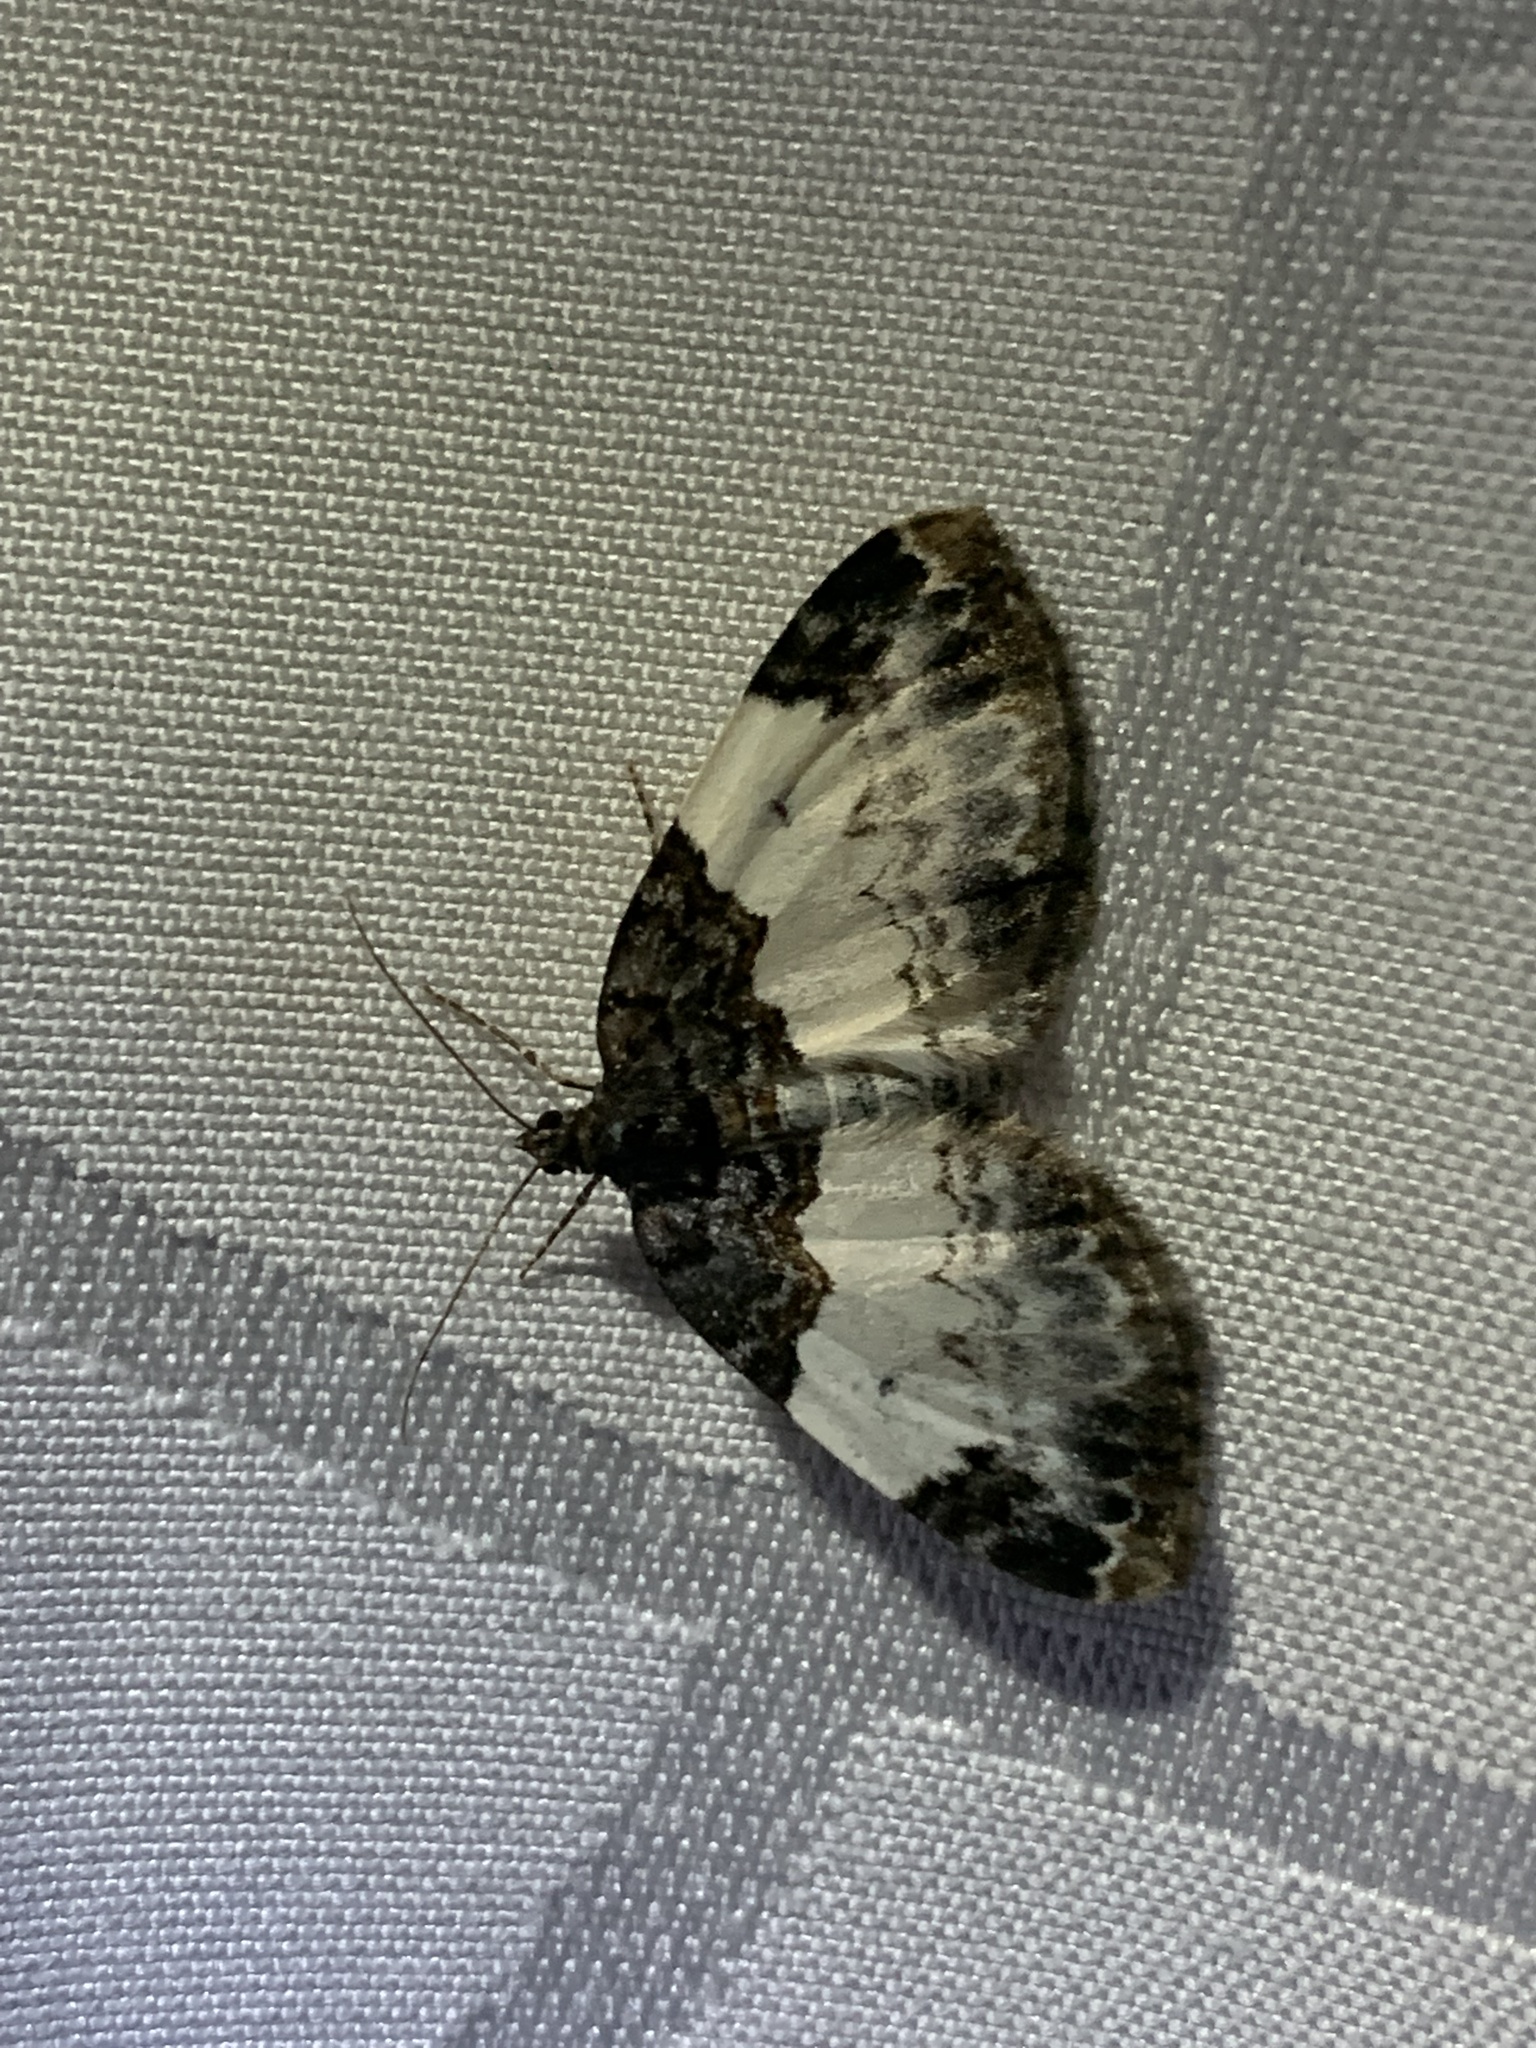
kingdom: Animalia
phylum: Arthropoda
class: Insecta
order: Lepidoptera
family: Geometridae
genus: Mesoleuca
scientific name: Mesoleuca ruficillata
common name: White-ribboned carpet moth
